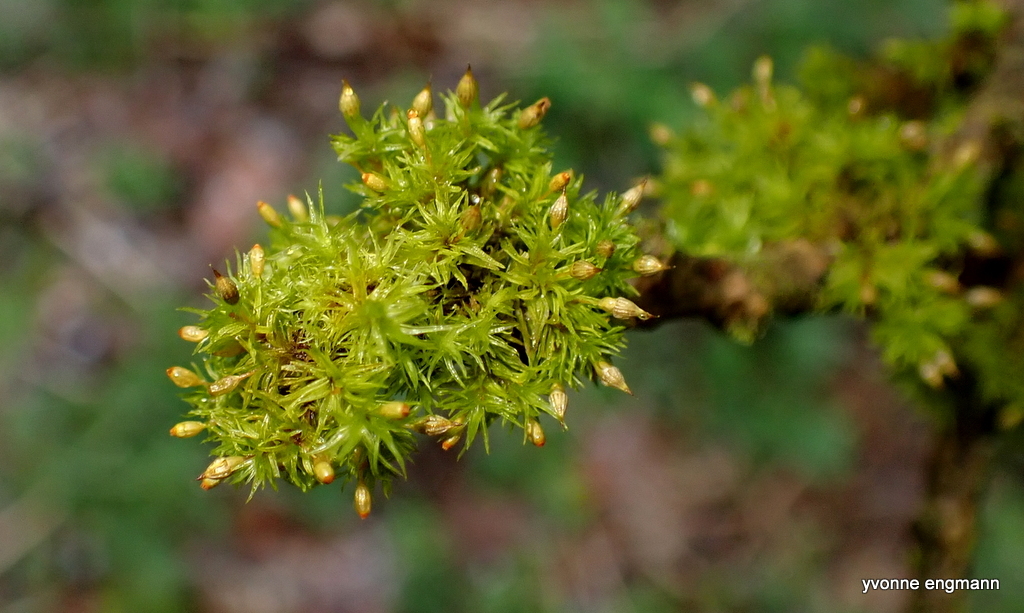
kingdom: Plantae
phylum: Bryophyta
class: Bryopsida
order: Orthotrichales
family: Orthotrichaceae
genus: Orthotrichum
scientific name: Orthotrichum pulchellum
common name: Elegant bristle-moss
